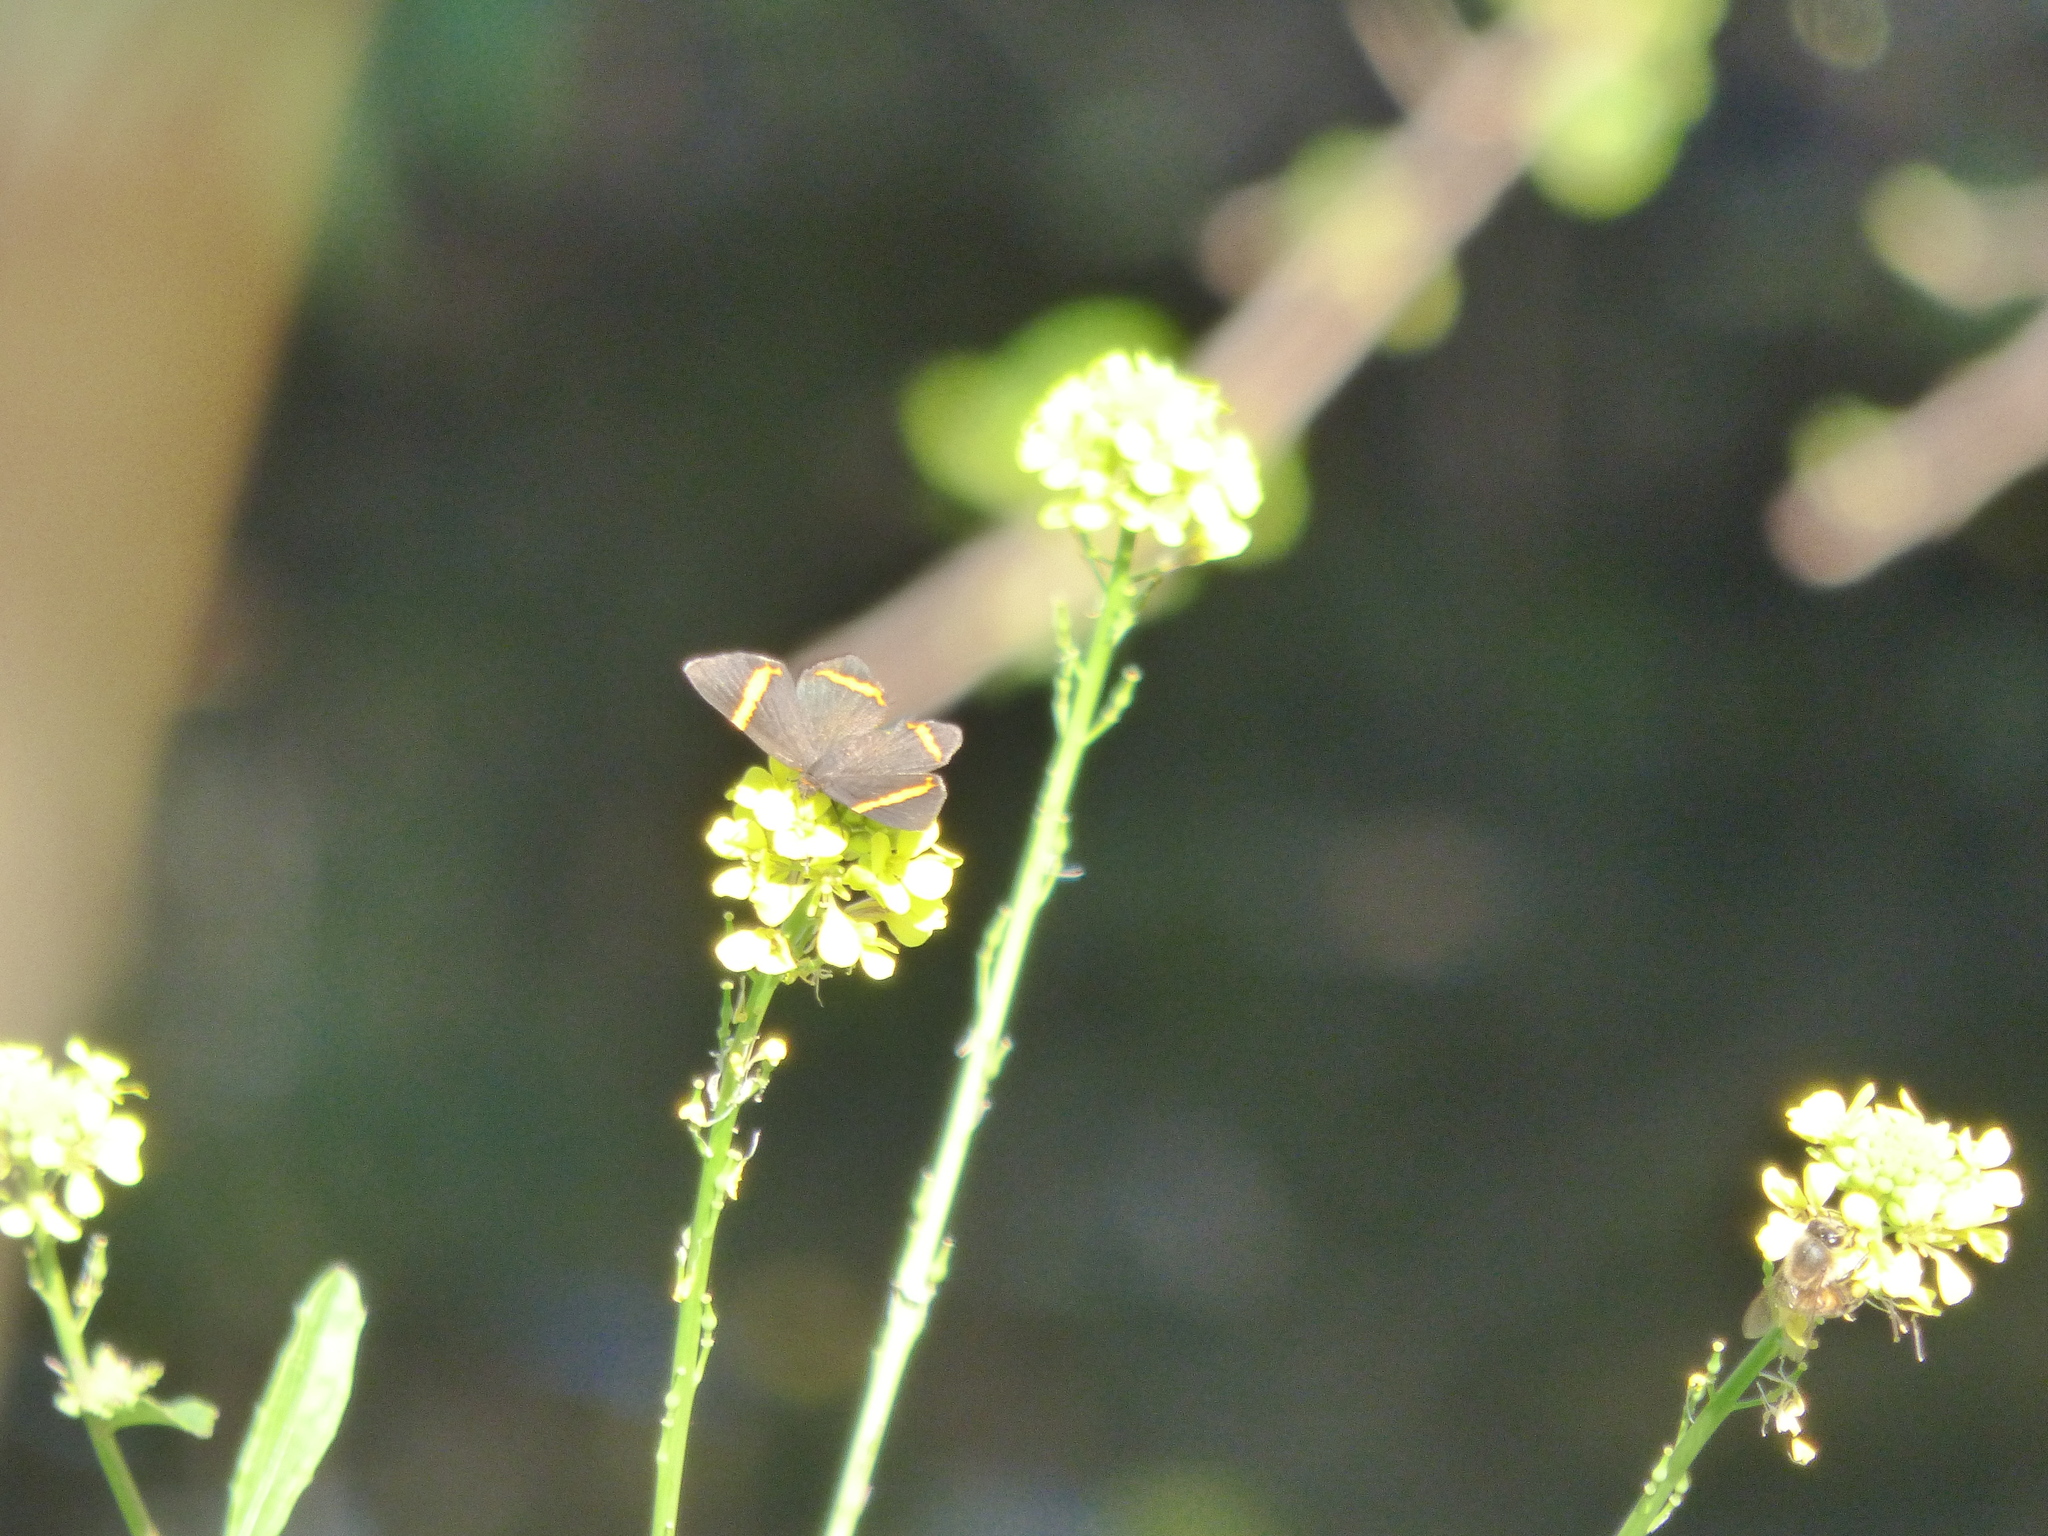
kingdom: Animalia
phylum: Arthropoda
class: Insecta
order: Lepidoptera
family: Riodinidae
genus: Riodina
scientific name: Riodina lysippoides
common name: Little dancer metalmark
